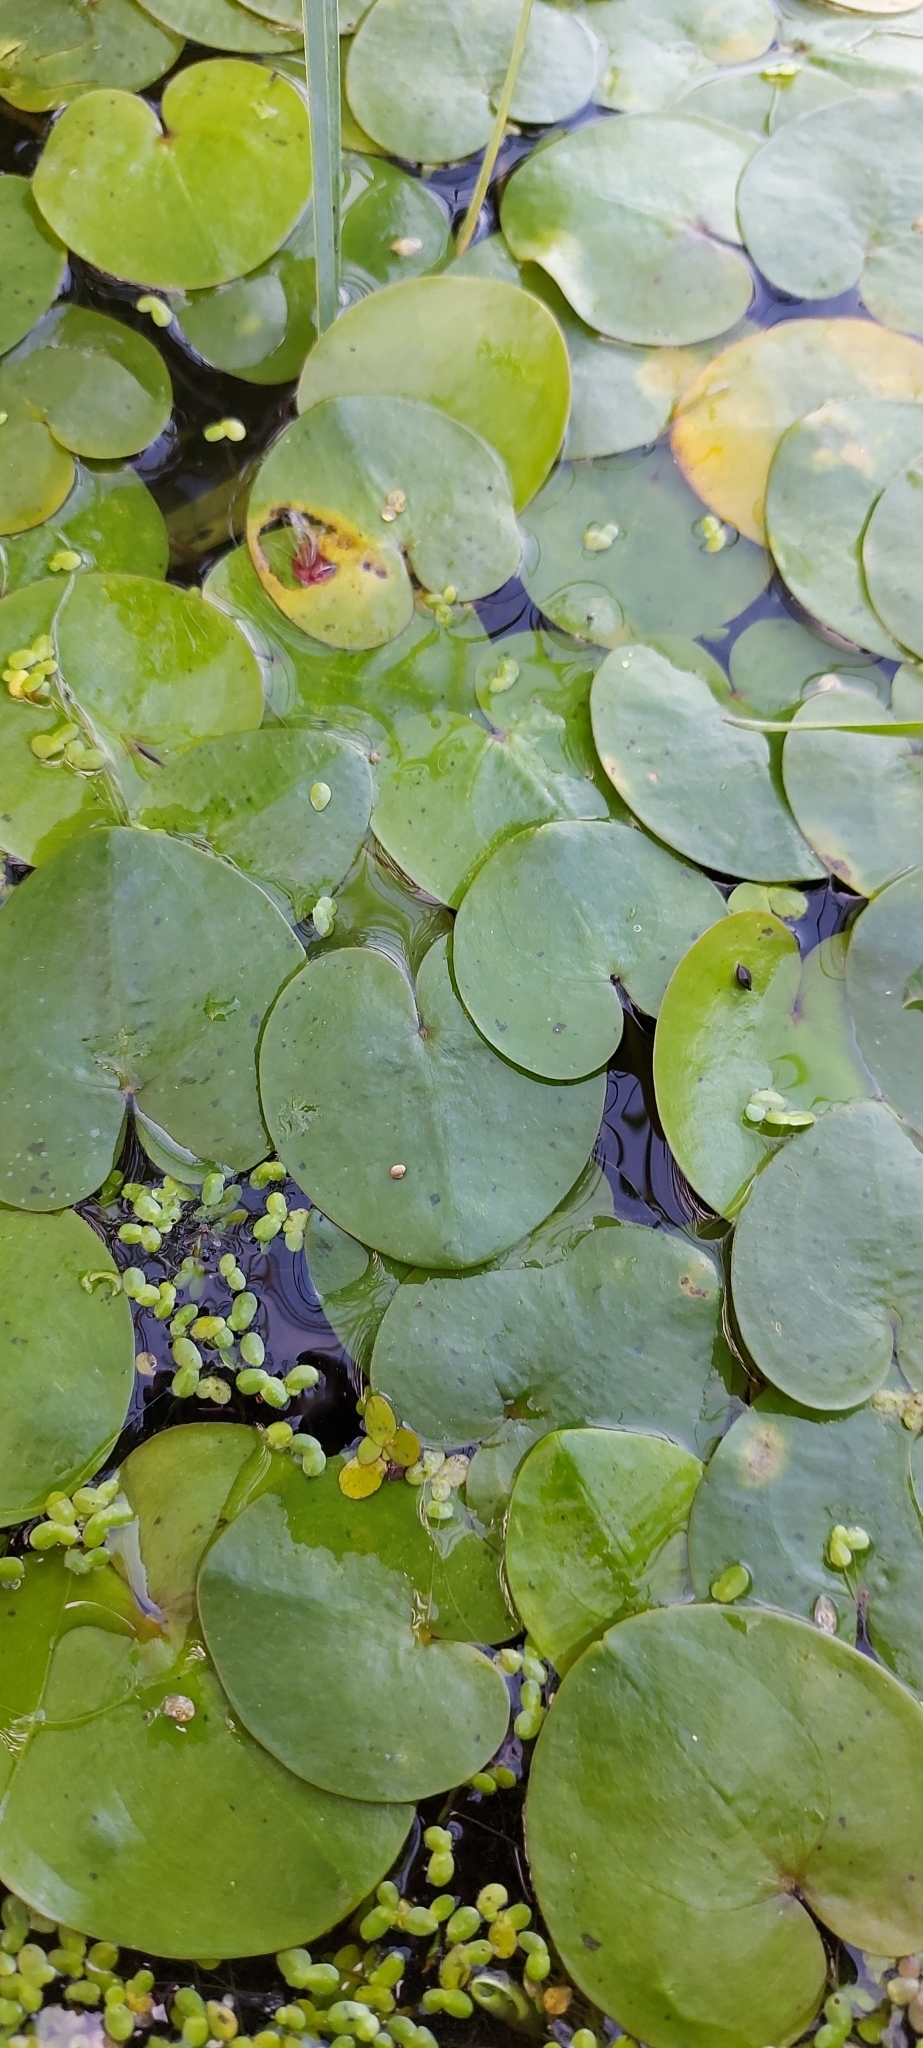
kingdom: Plantae
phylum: Tracheophyta
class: Liliopsida
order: Alismatales
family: Hydrocharitaceae
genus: Hydrocharis
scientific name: Hydrocharis morsus-ranae
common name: Frogbit
